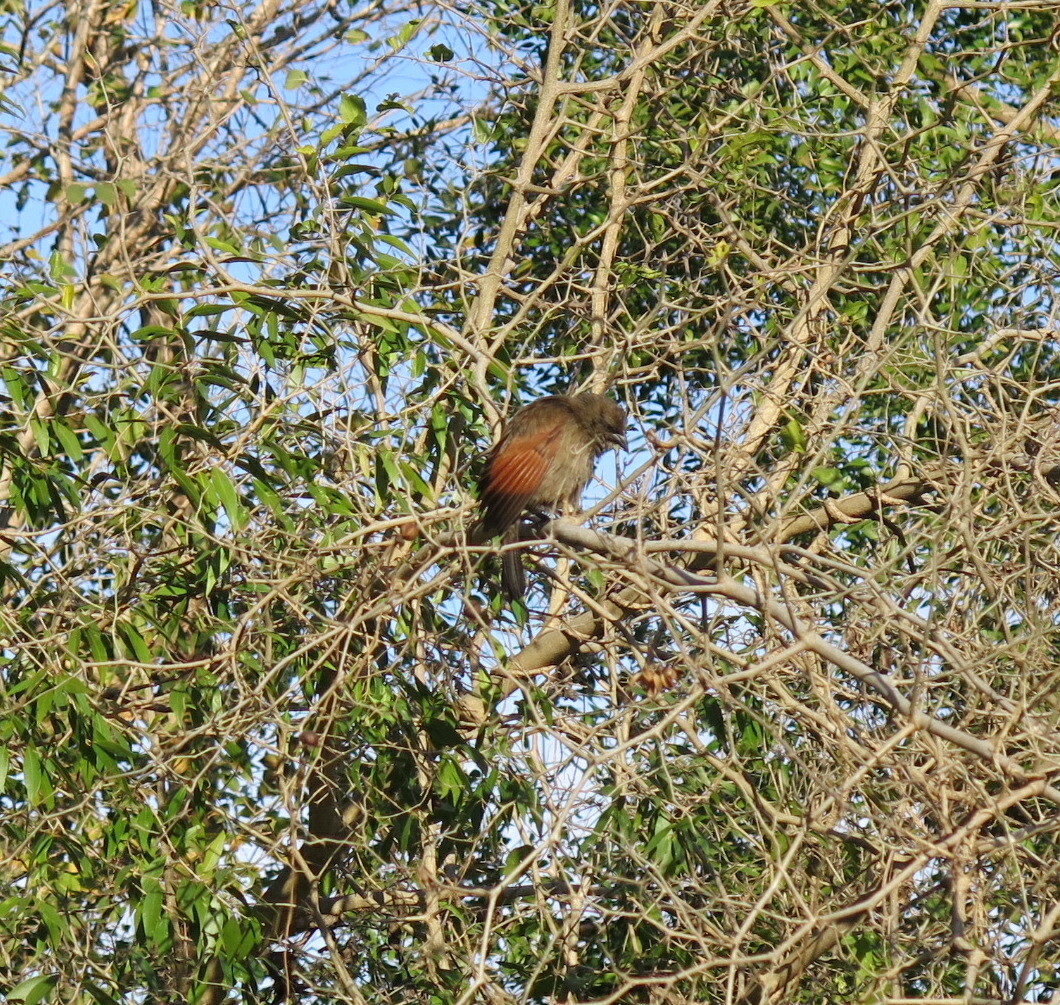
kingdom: Animalia
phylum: Chordata
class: Aves
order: Passeriformes
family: Icteridae
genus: Agelaioides
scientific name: Agelaioides badius
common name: Baywing
